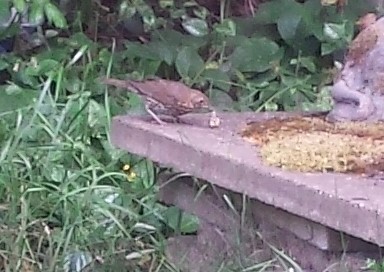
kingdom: Animalia
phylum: Chordata
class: Aves
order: Passeriformes
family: Turdidae
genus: Turdus
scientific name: Turdus philomelos
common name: Song thrush
